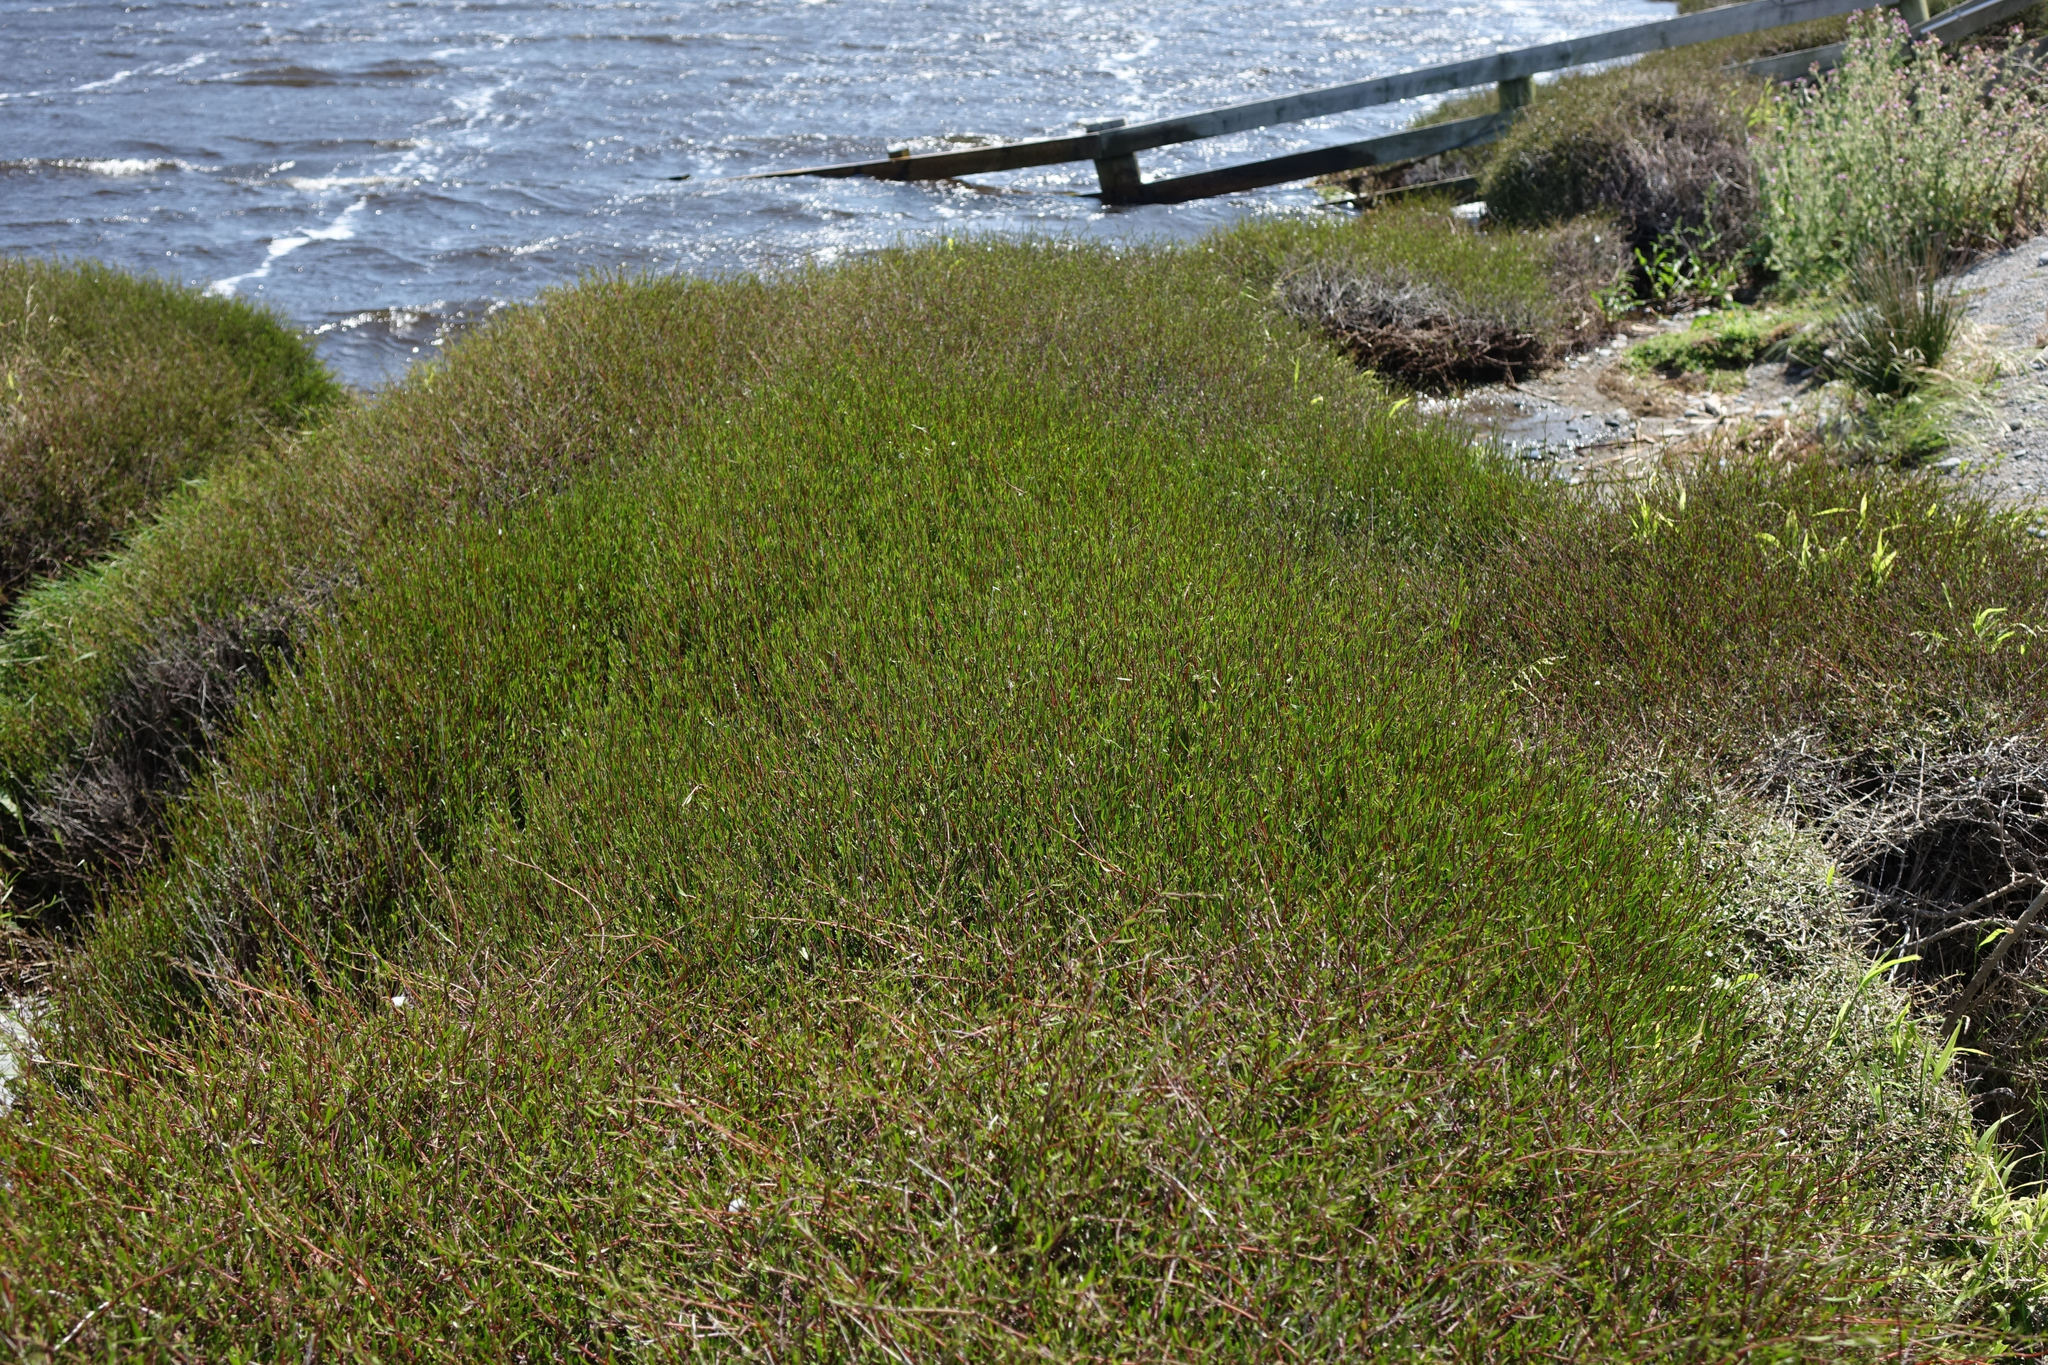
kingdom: Plantae
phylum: Tracheophyta
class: Magnoliopsida
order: Malvales
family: Malvaceae
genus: Plagianthus
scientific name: Plagianthus divaricatus
